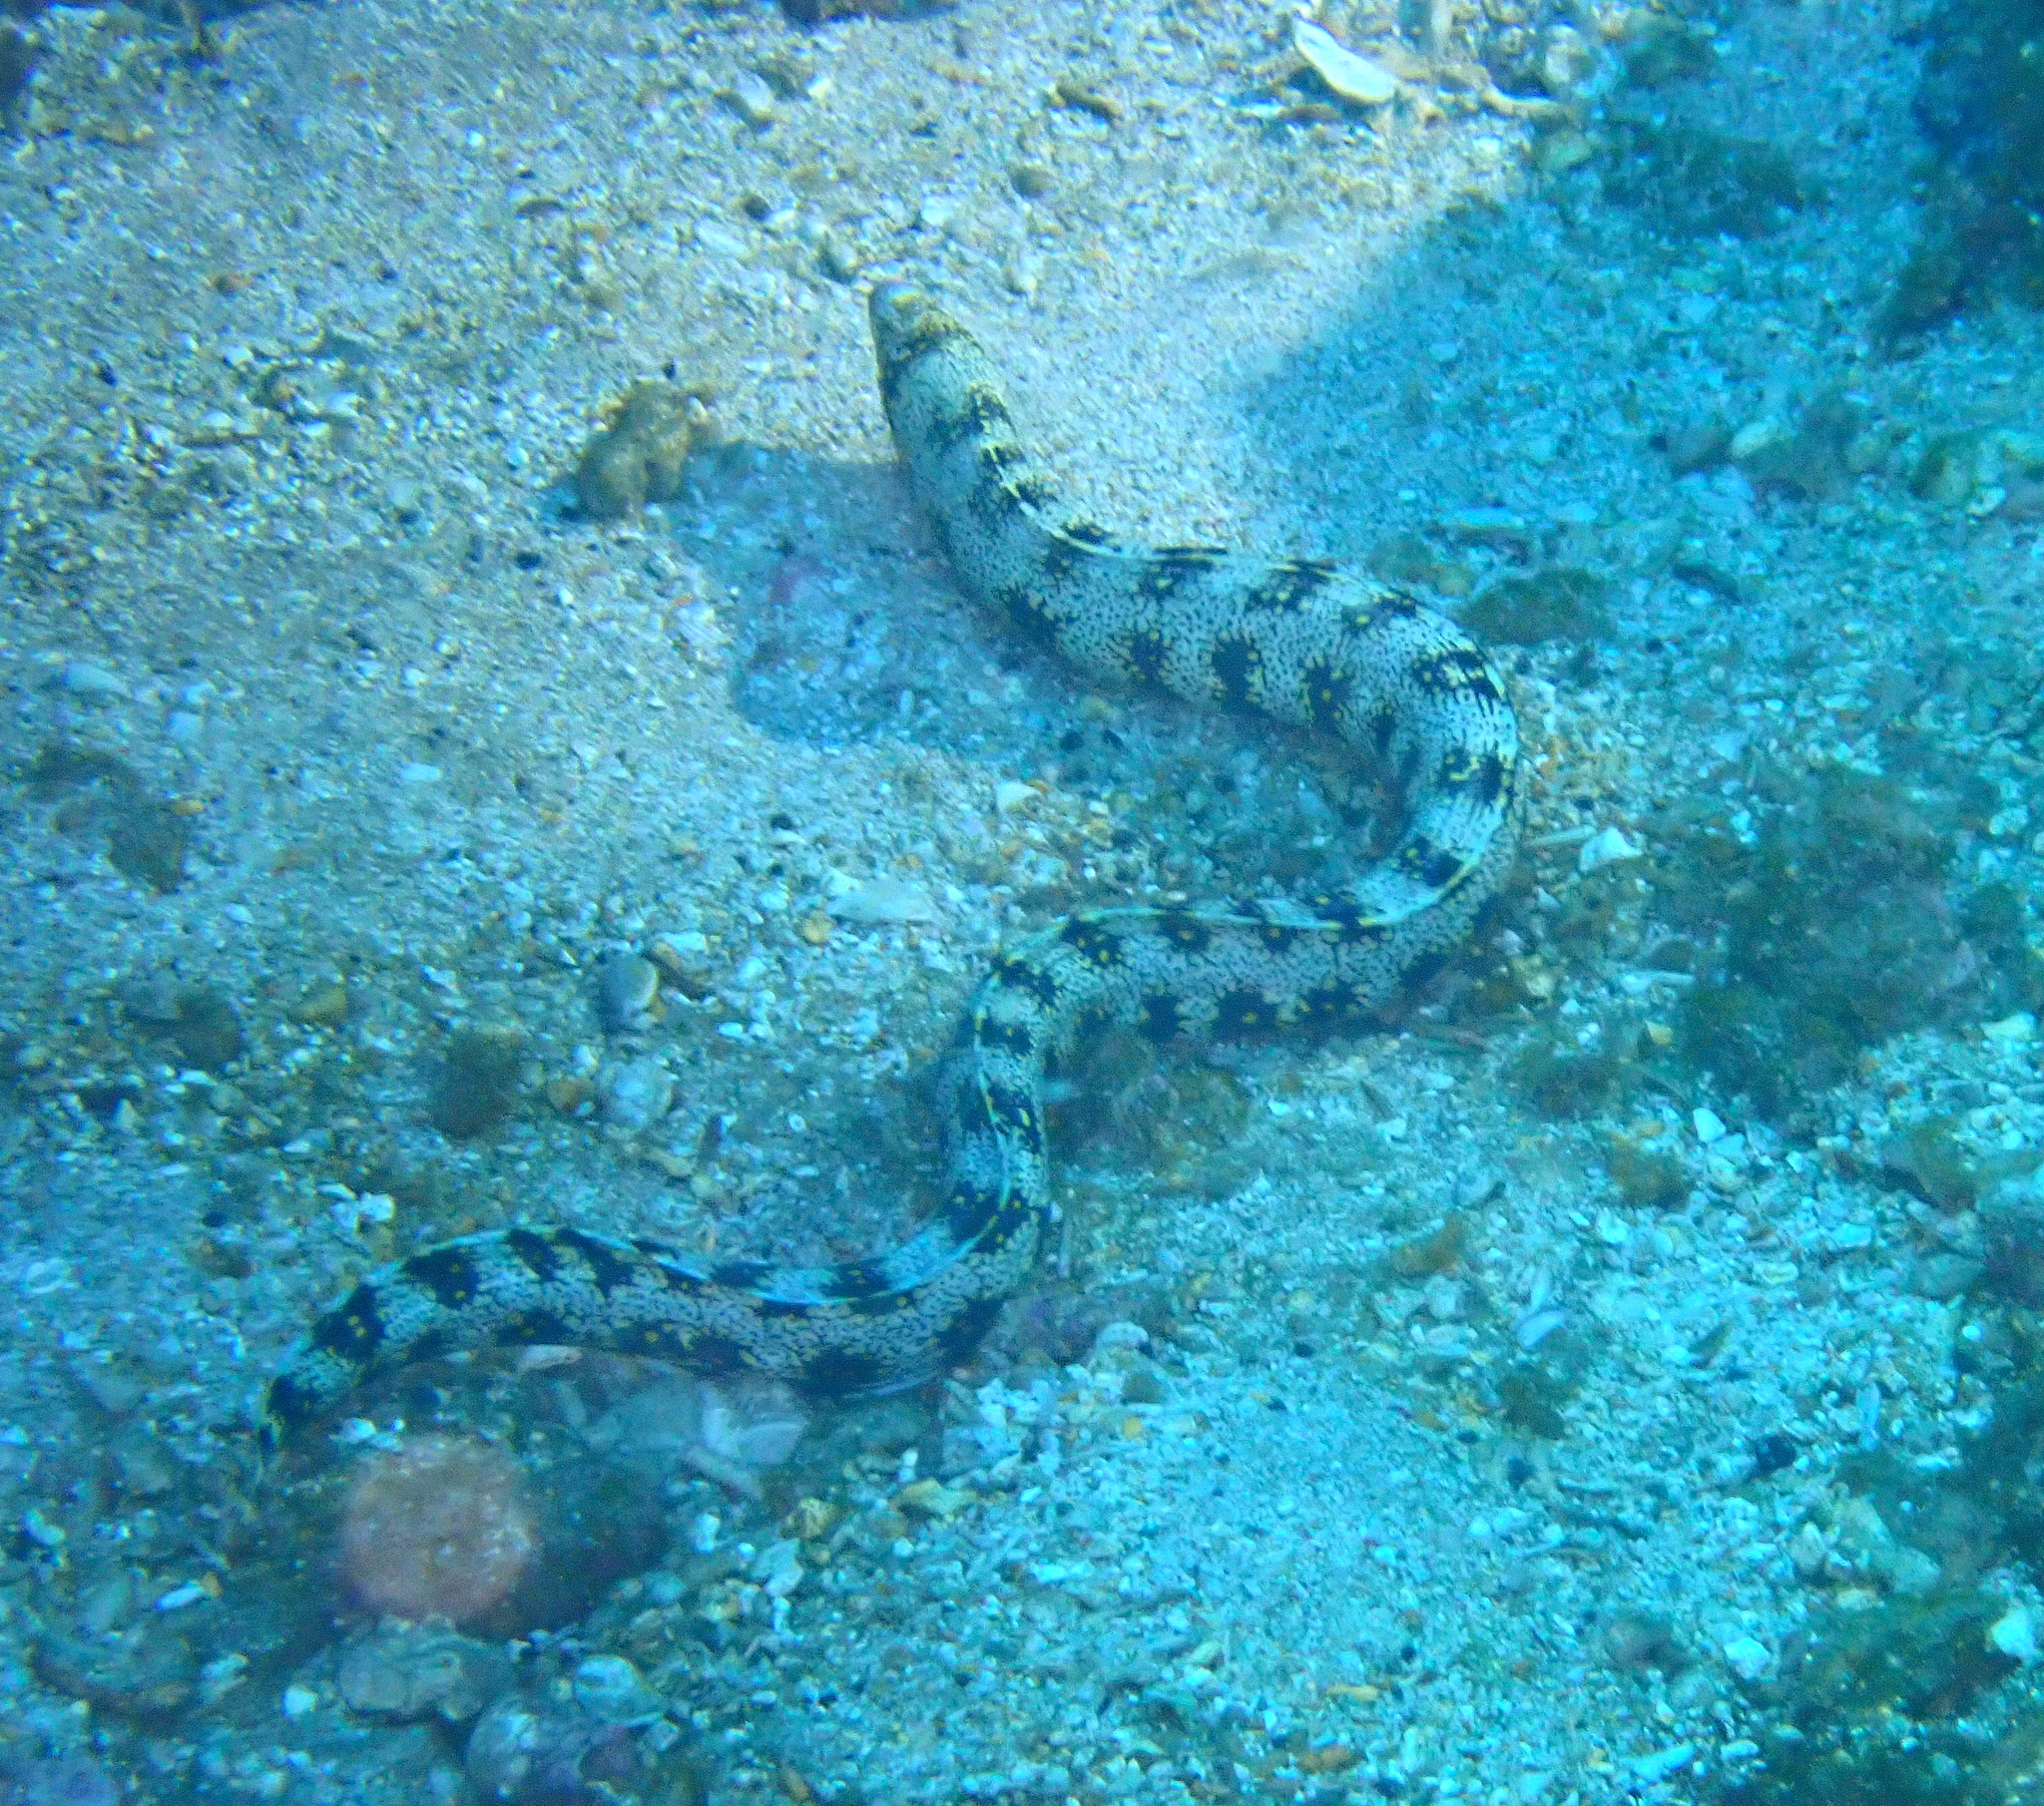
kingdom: Animalia
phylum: Chordata
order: Anguilliformes
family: Muraenidae
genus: Echidna
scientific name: Echidna nebulosa
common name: Snowflake moray
